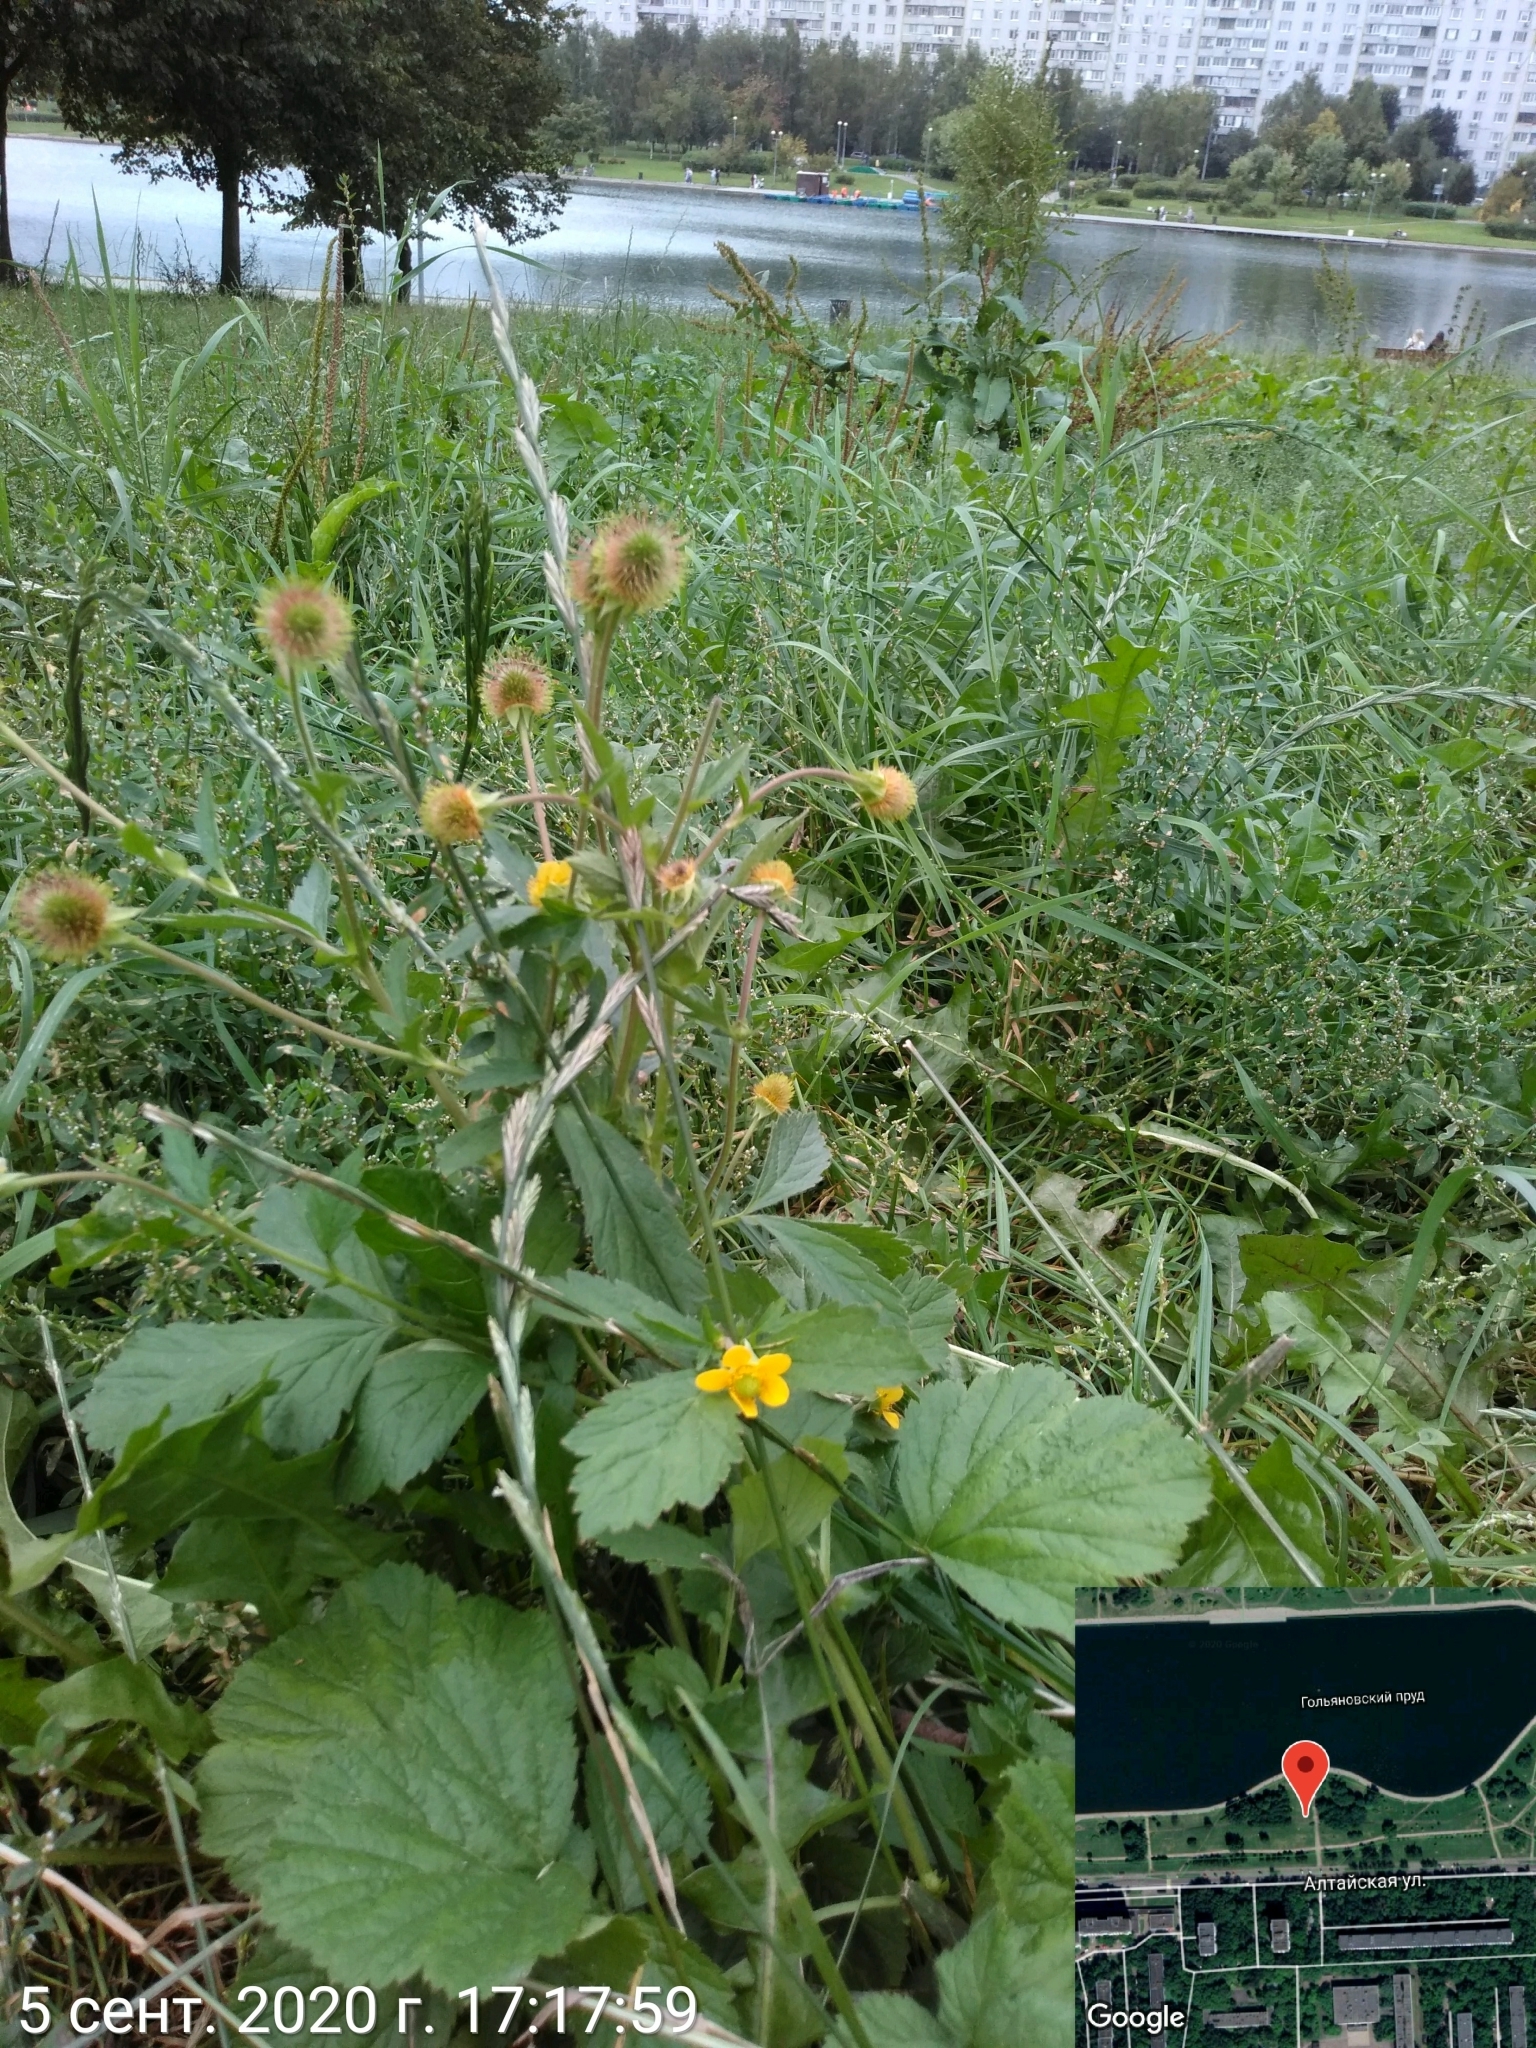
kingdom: Plantae
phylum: Tracheophyta
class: Magnoliopsida
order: Rosales
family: Rosaceae
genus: Geum
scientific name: Geum aleppicum
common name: Yellow avens
